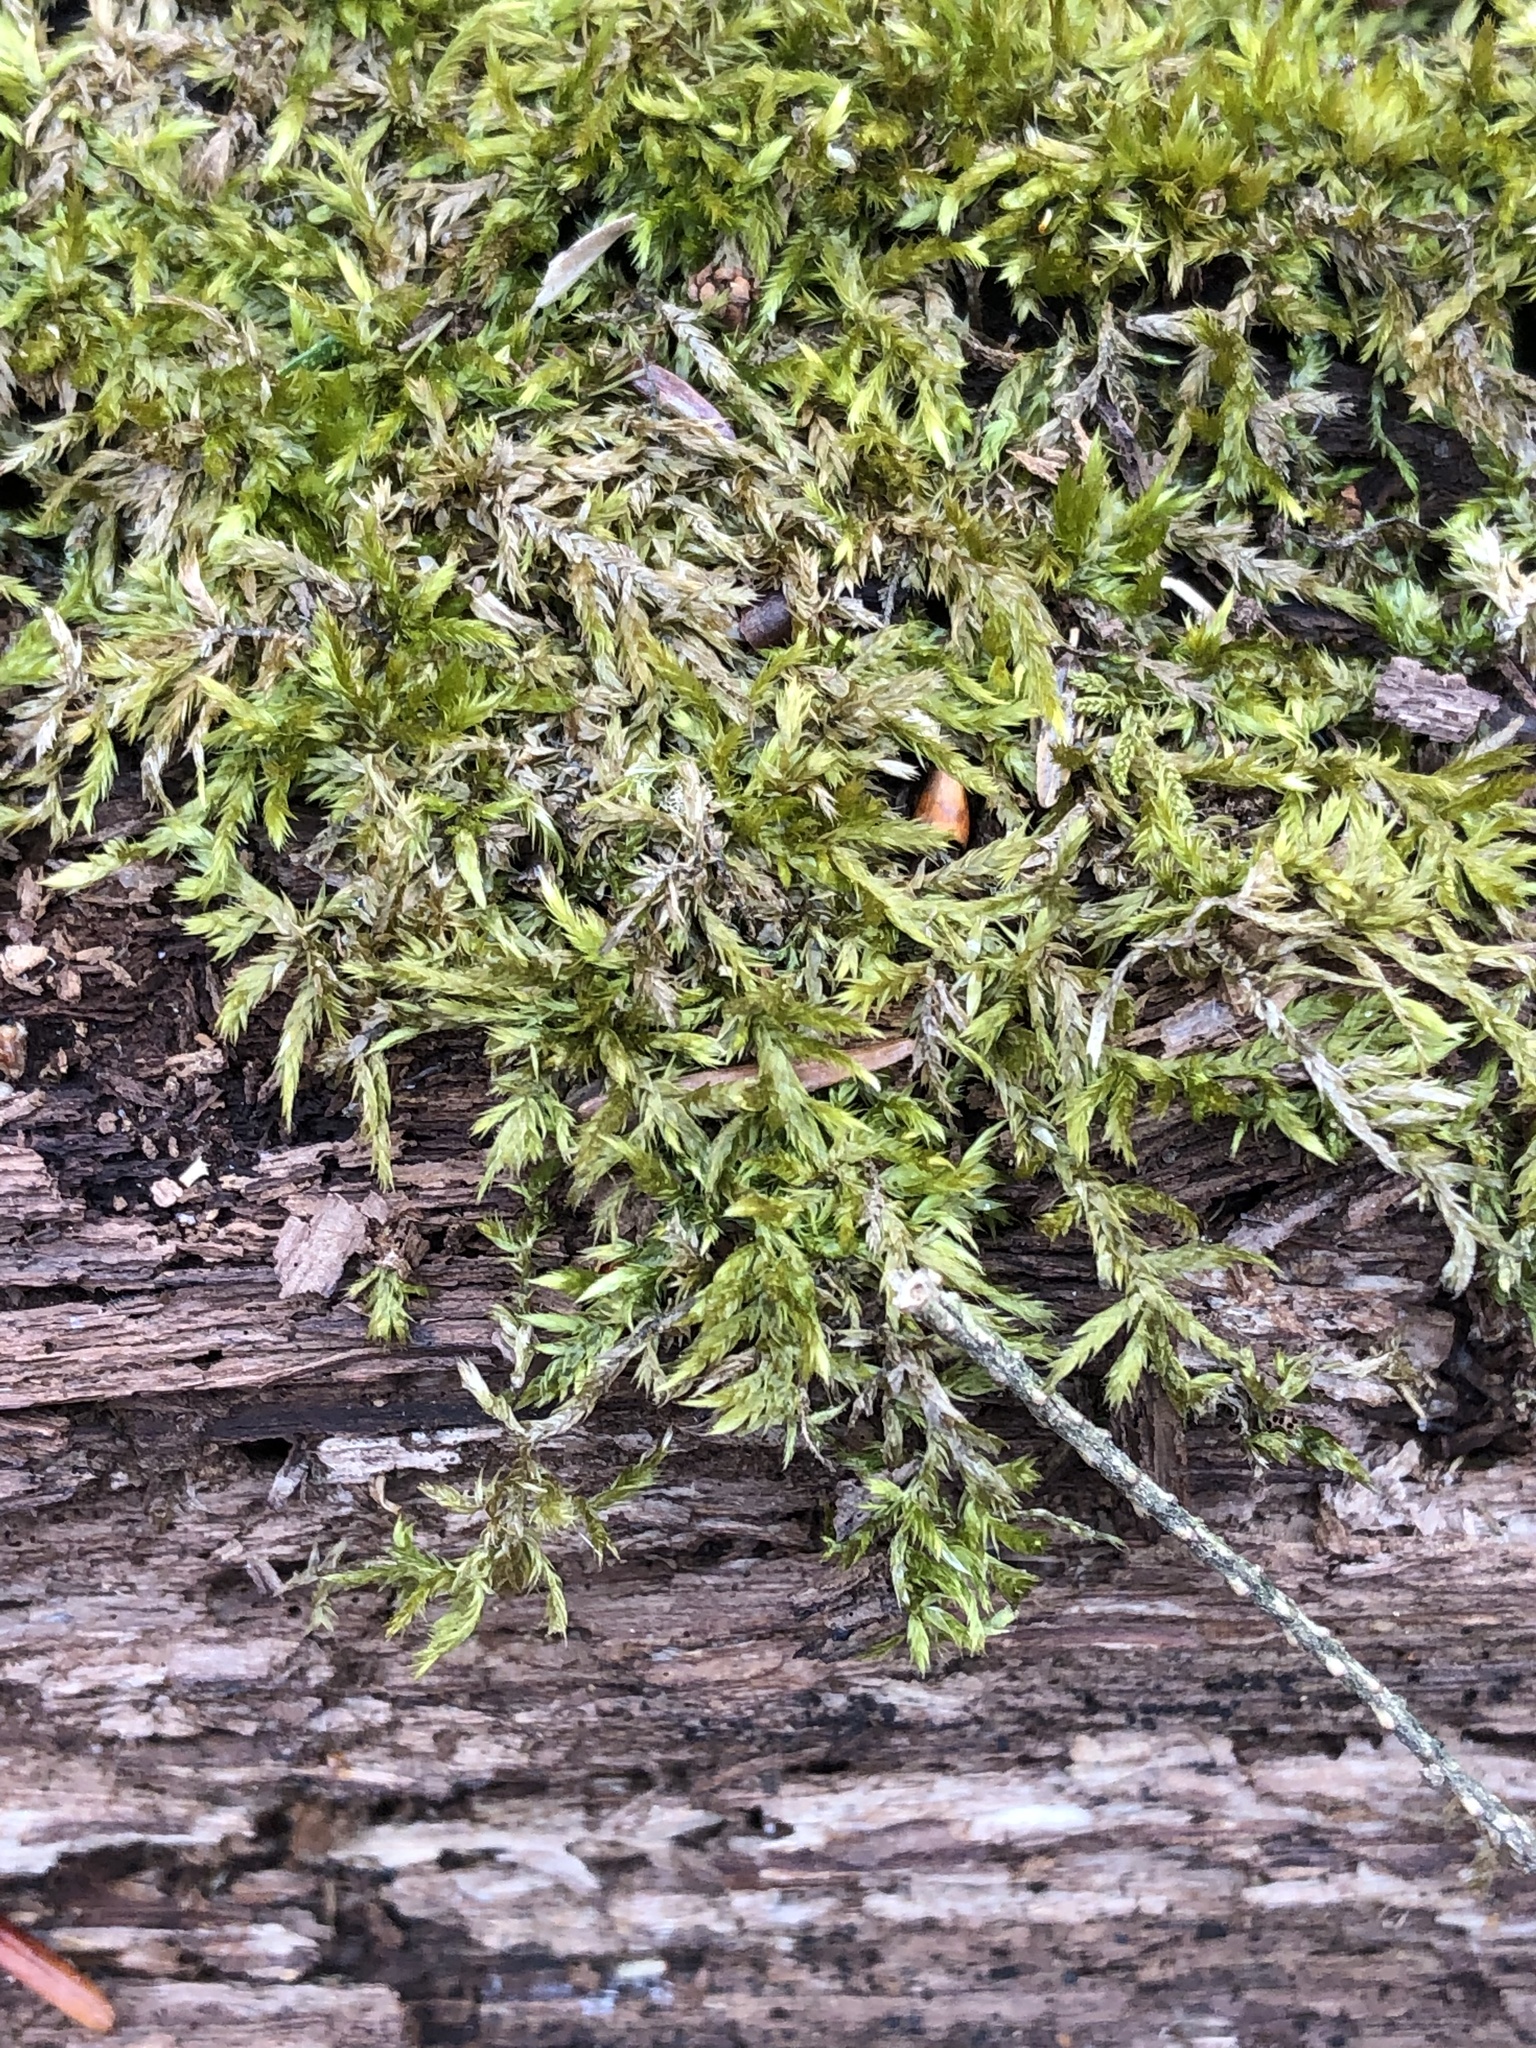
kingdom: Plantae
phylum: Bryophyta
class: Bryopsida
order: Hypnales
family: Callicladiaceae
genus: Callicladium
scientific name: Callicladium haldanianum
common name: Beautiful branch moss
